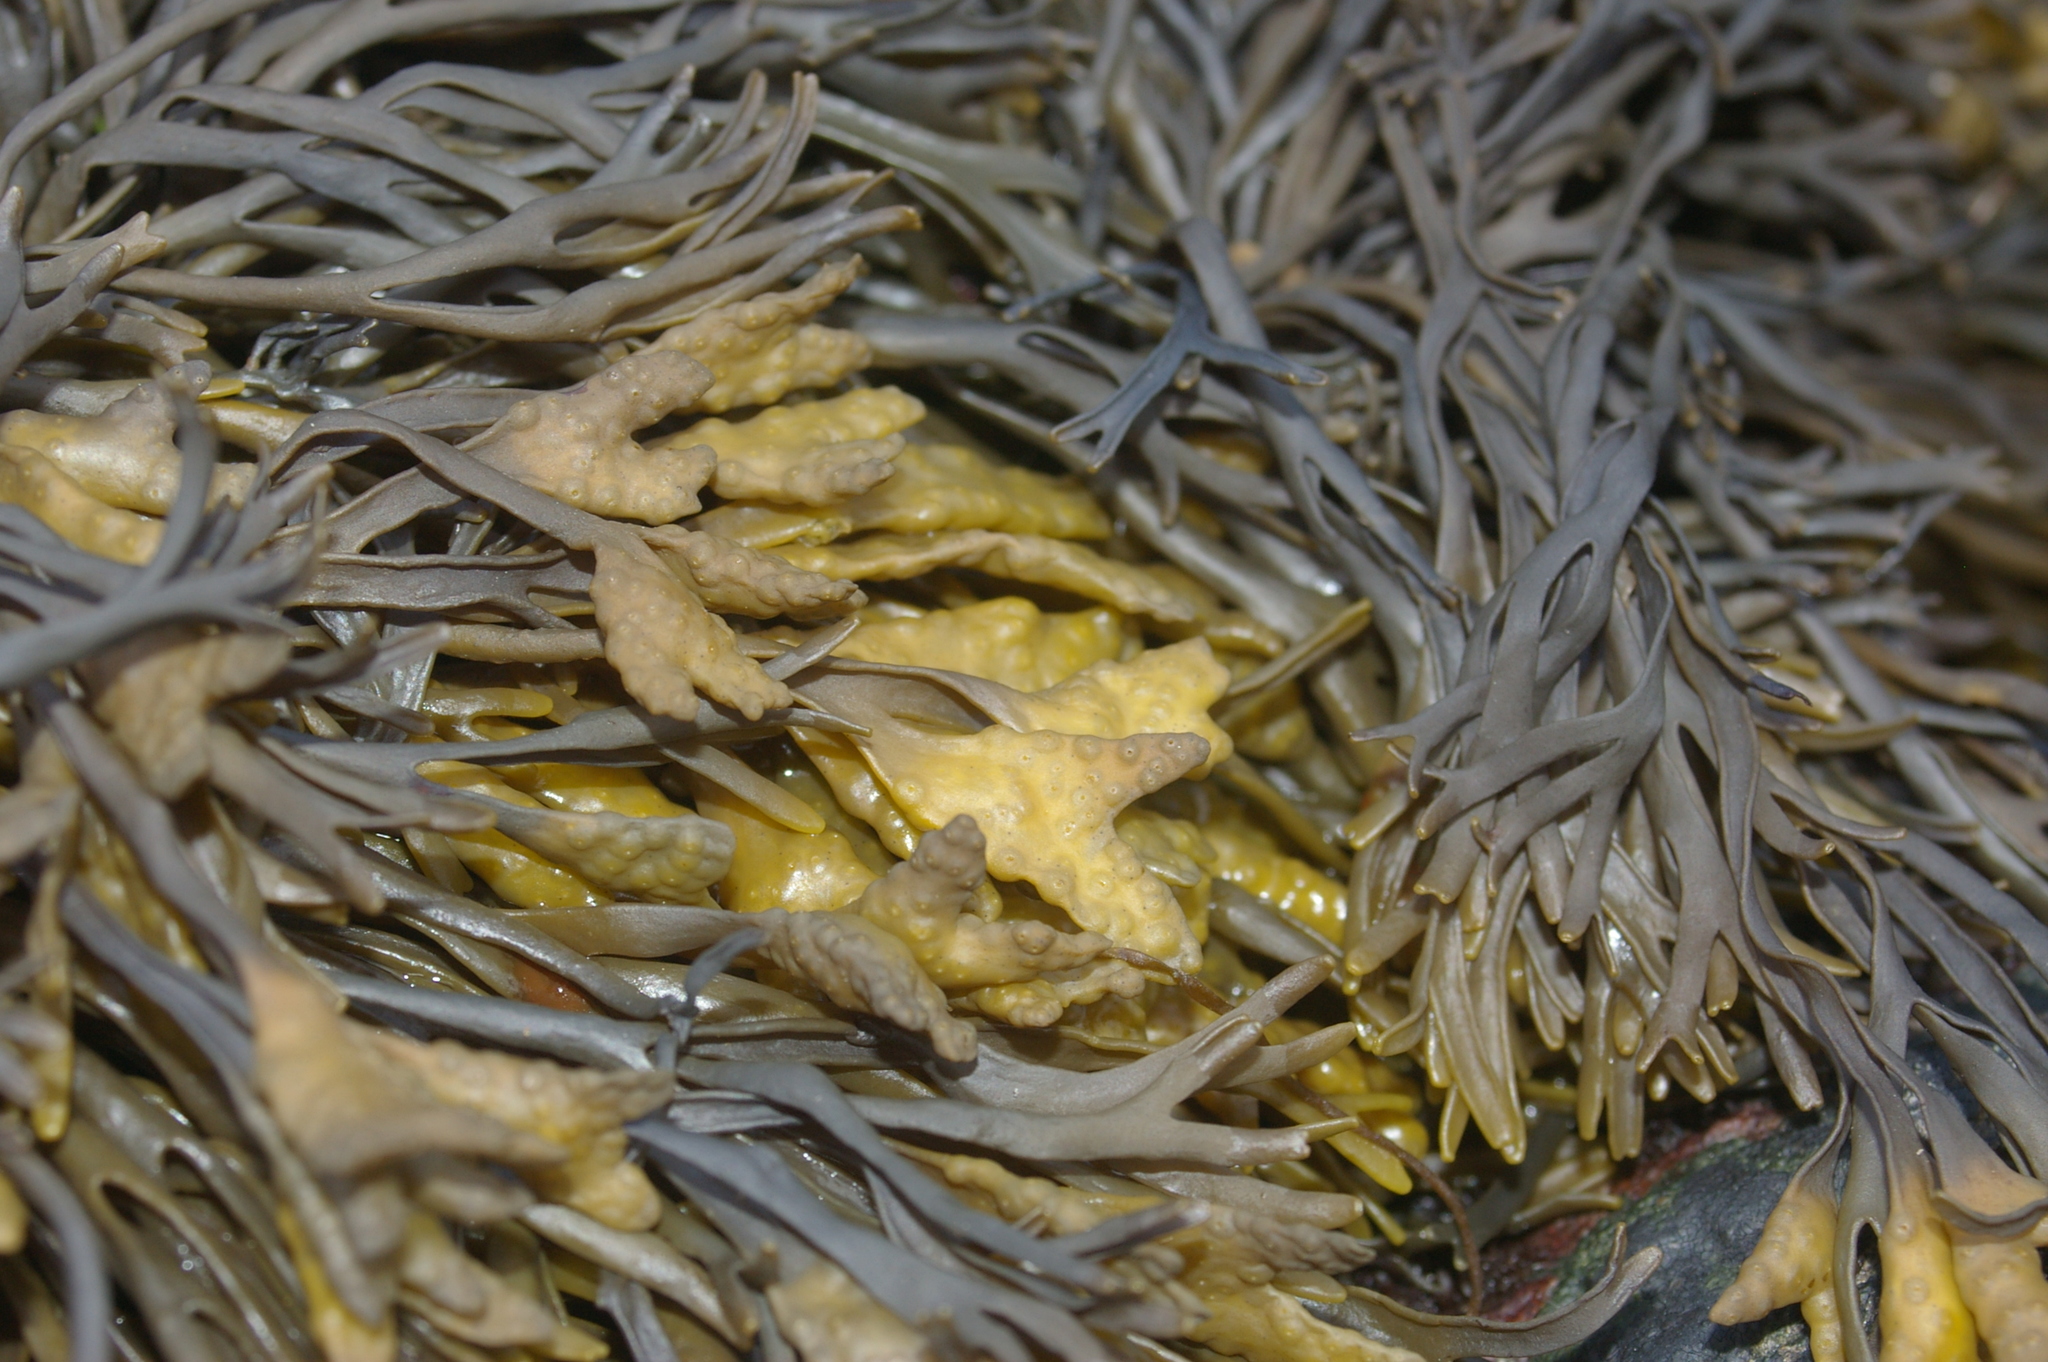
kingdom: Chromista
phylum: Ochrophyta
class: Phaeophyceae
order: Fucales
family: Fucaceae
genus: Pelvetia
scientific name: Pelvetia canaliculata
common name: Channelled wrack
